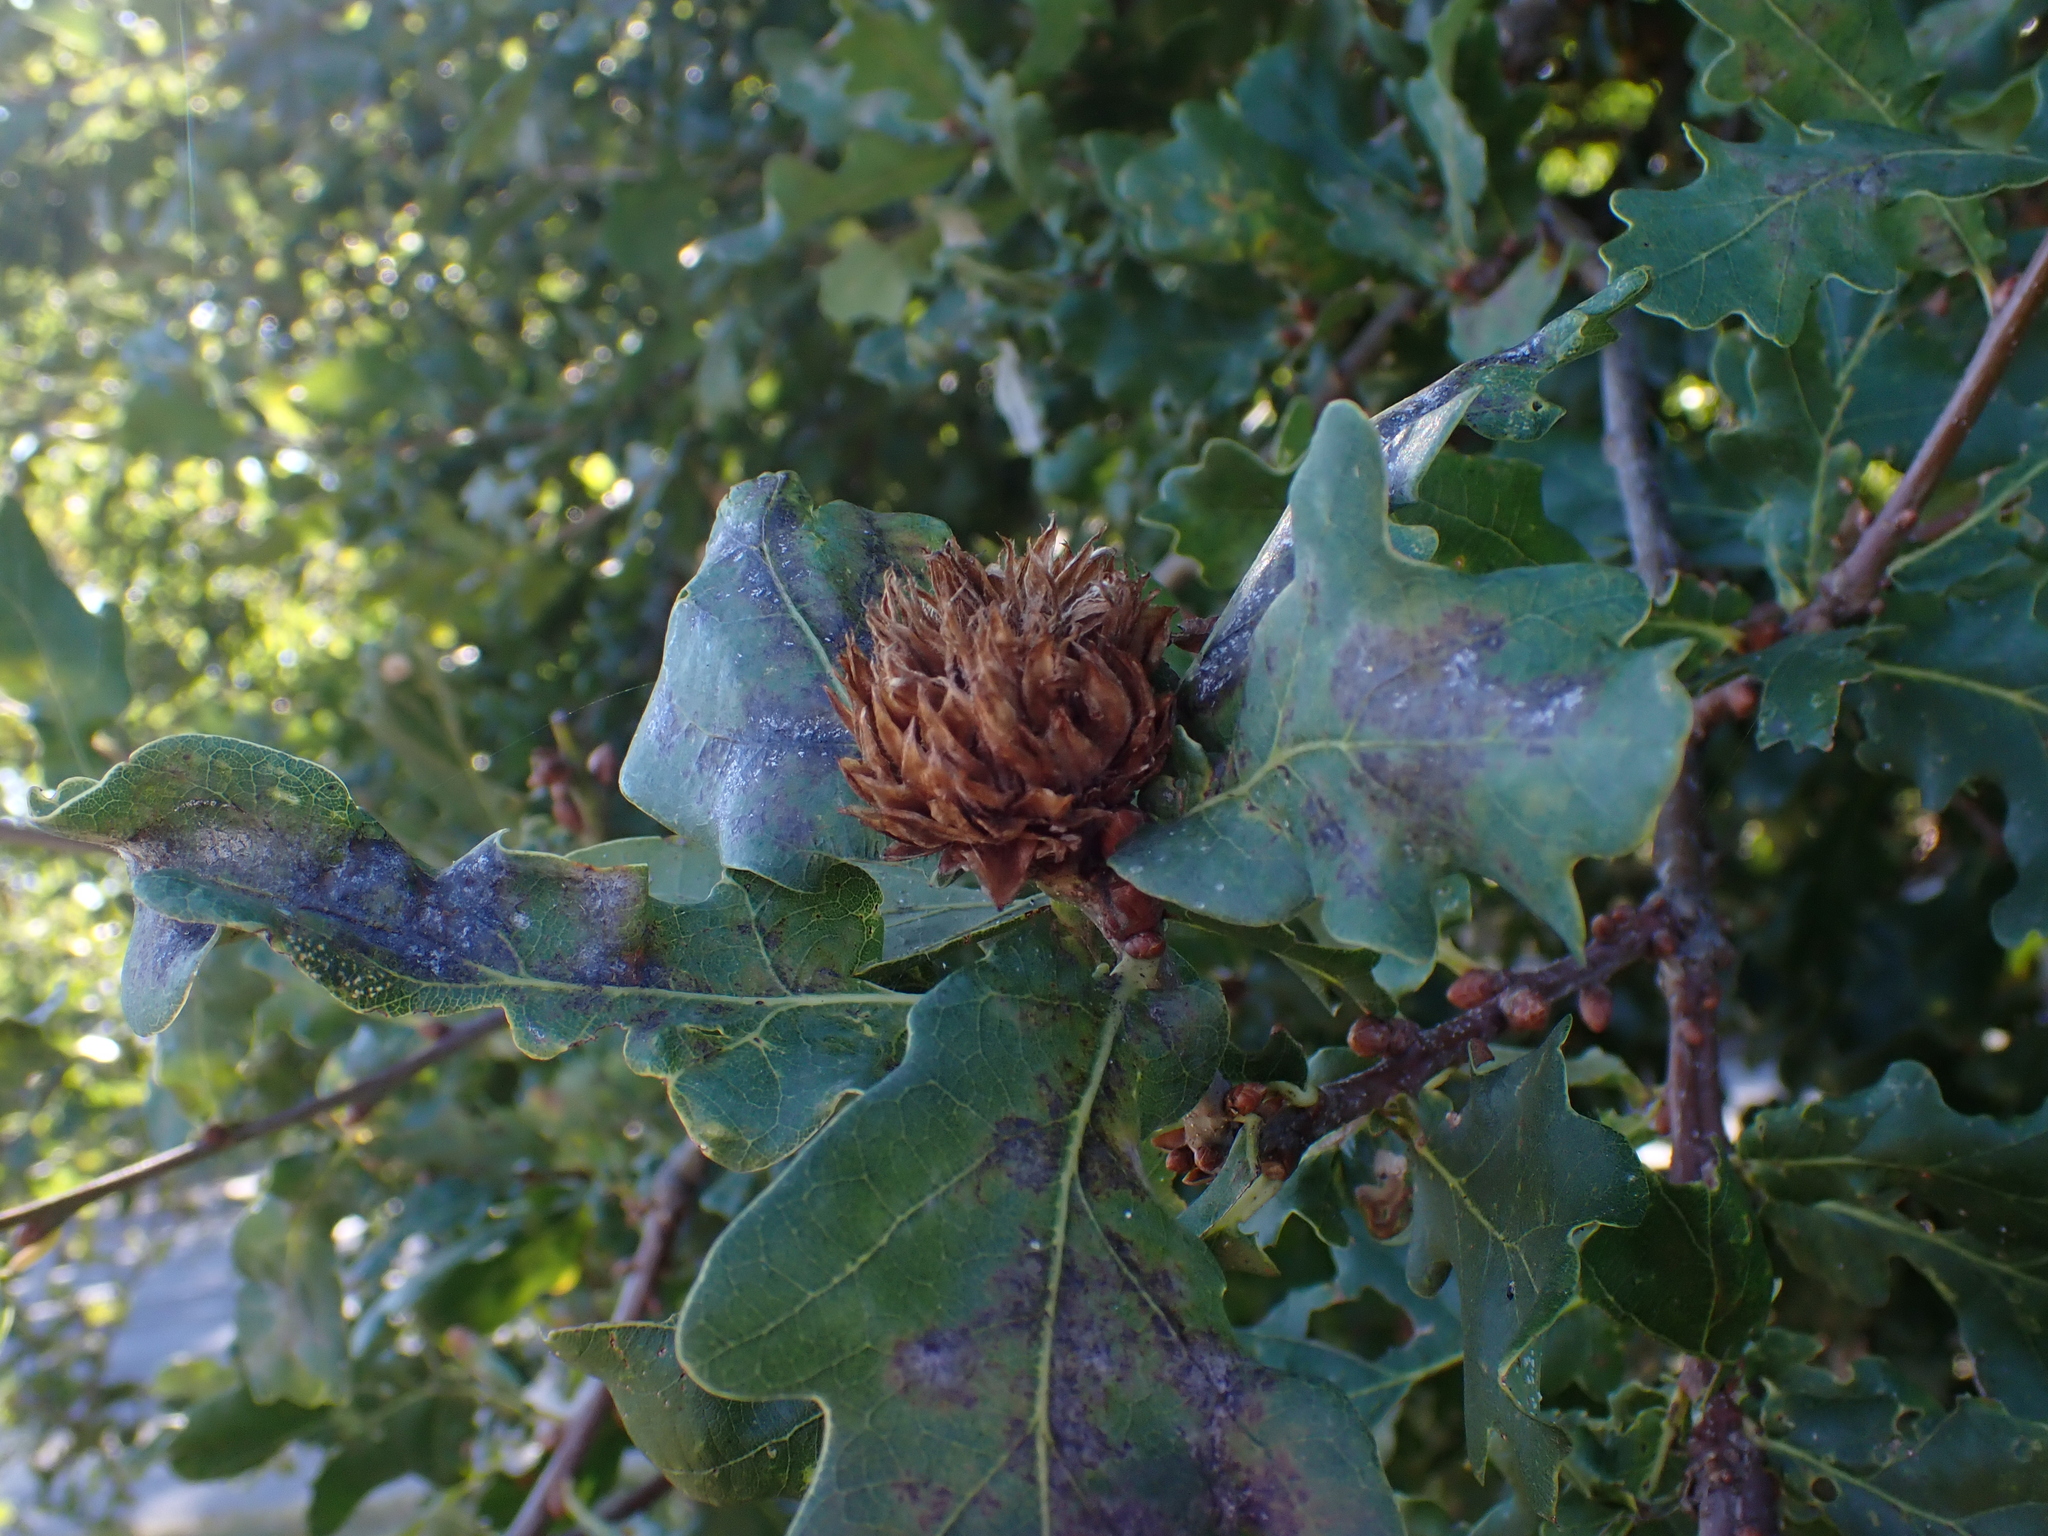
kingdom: Animalia
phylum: Arthropoda
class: Insecta
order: Hymenoptera
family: Cynipidae
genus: Andricus
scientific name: Andricus foecundatrix
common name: Artichoke gall
